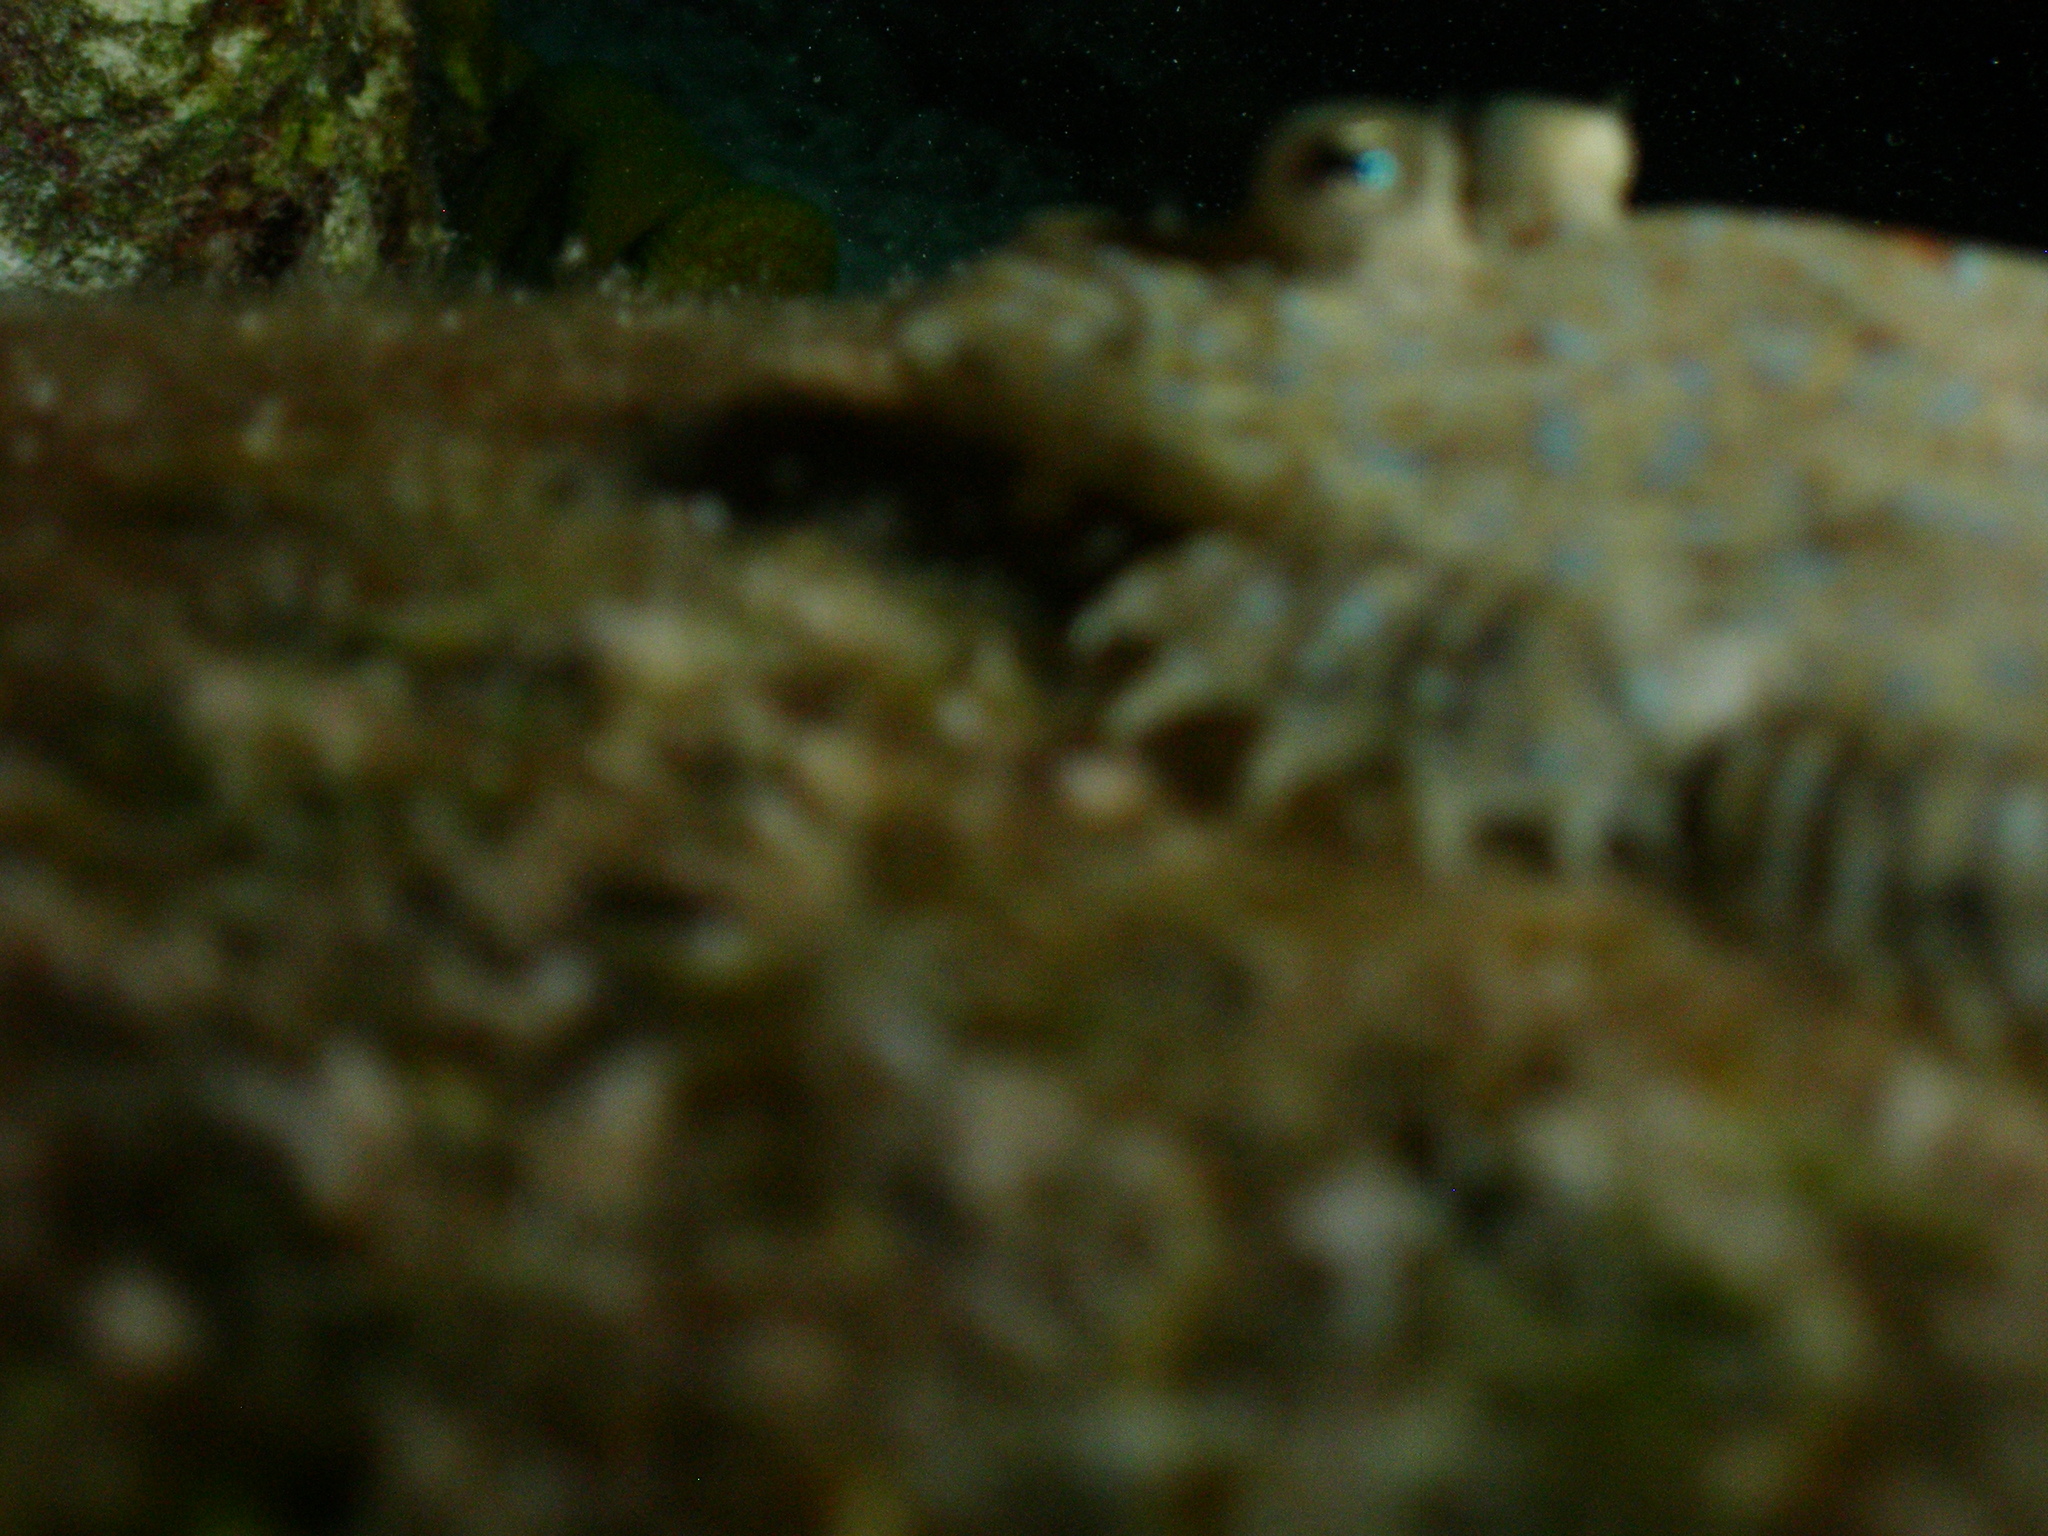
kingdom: Animalia
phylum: Chordata
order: Pleuronectiformes
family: Bothidae
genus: Bothus
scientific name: Bothus lunatus
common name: Peacock flounder
